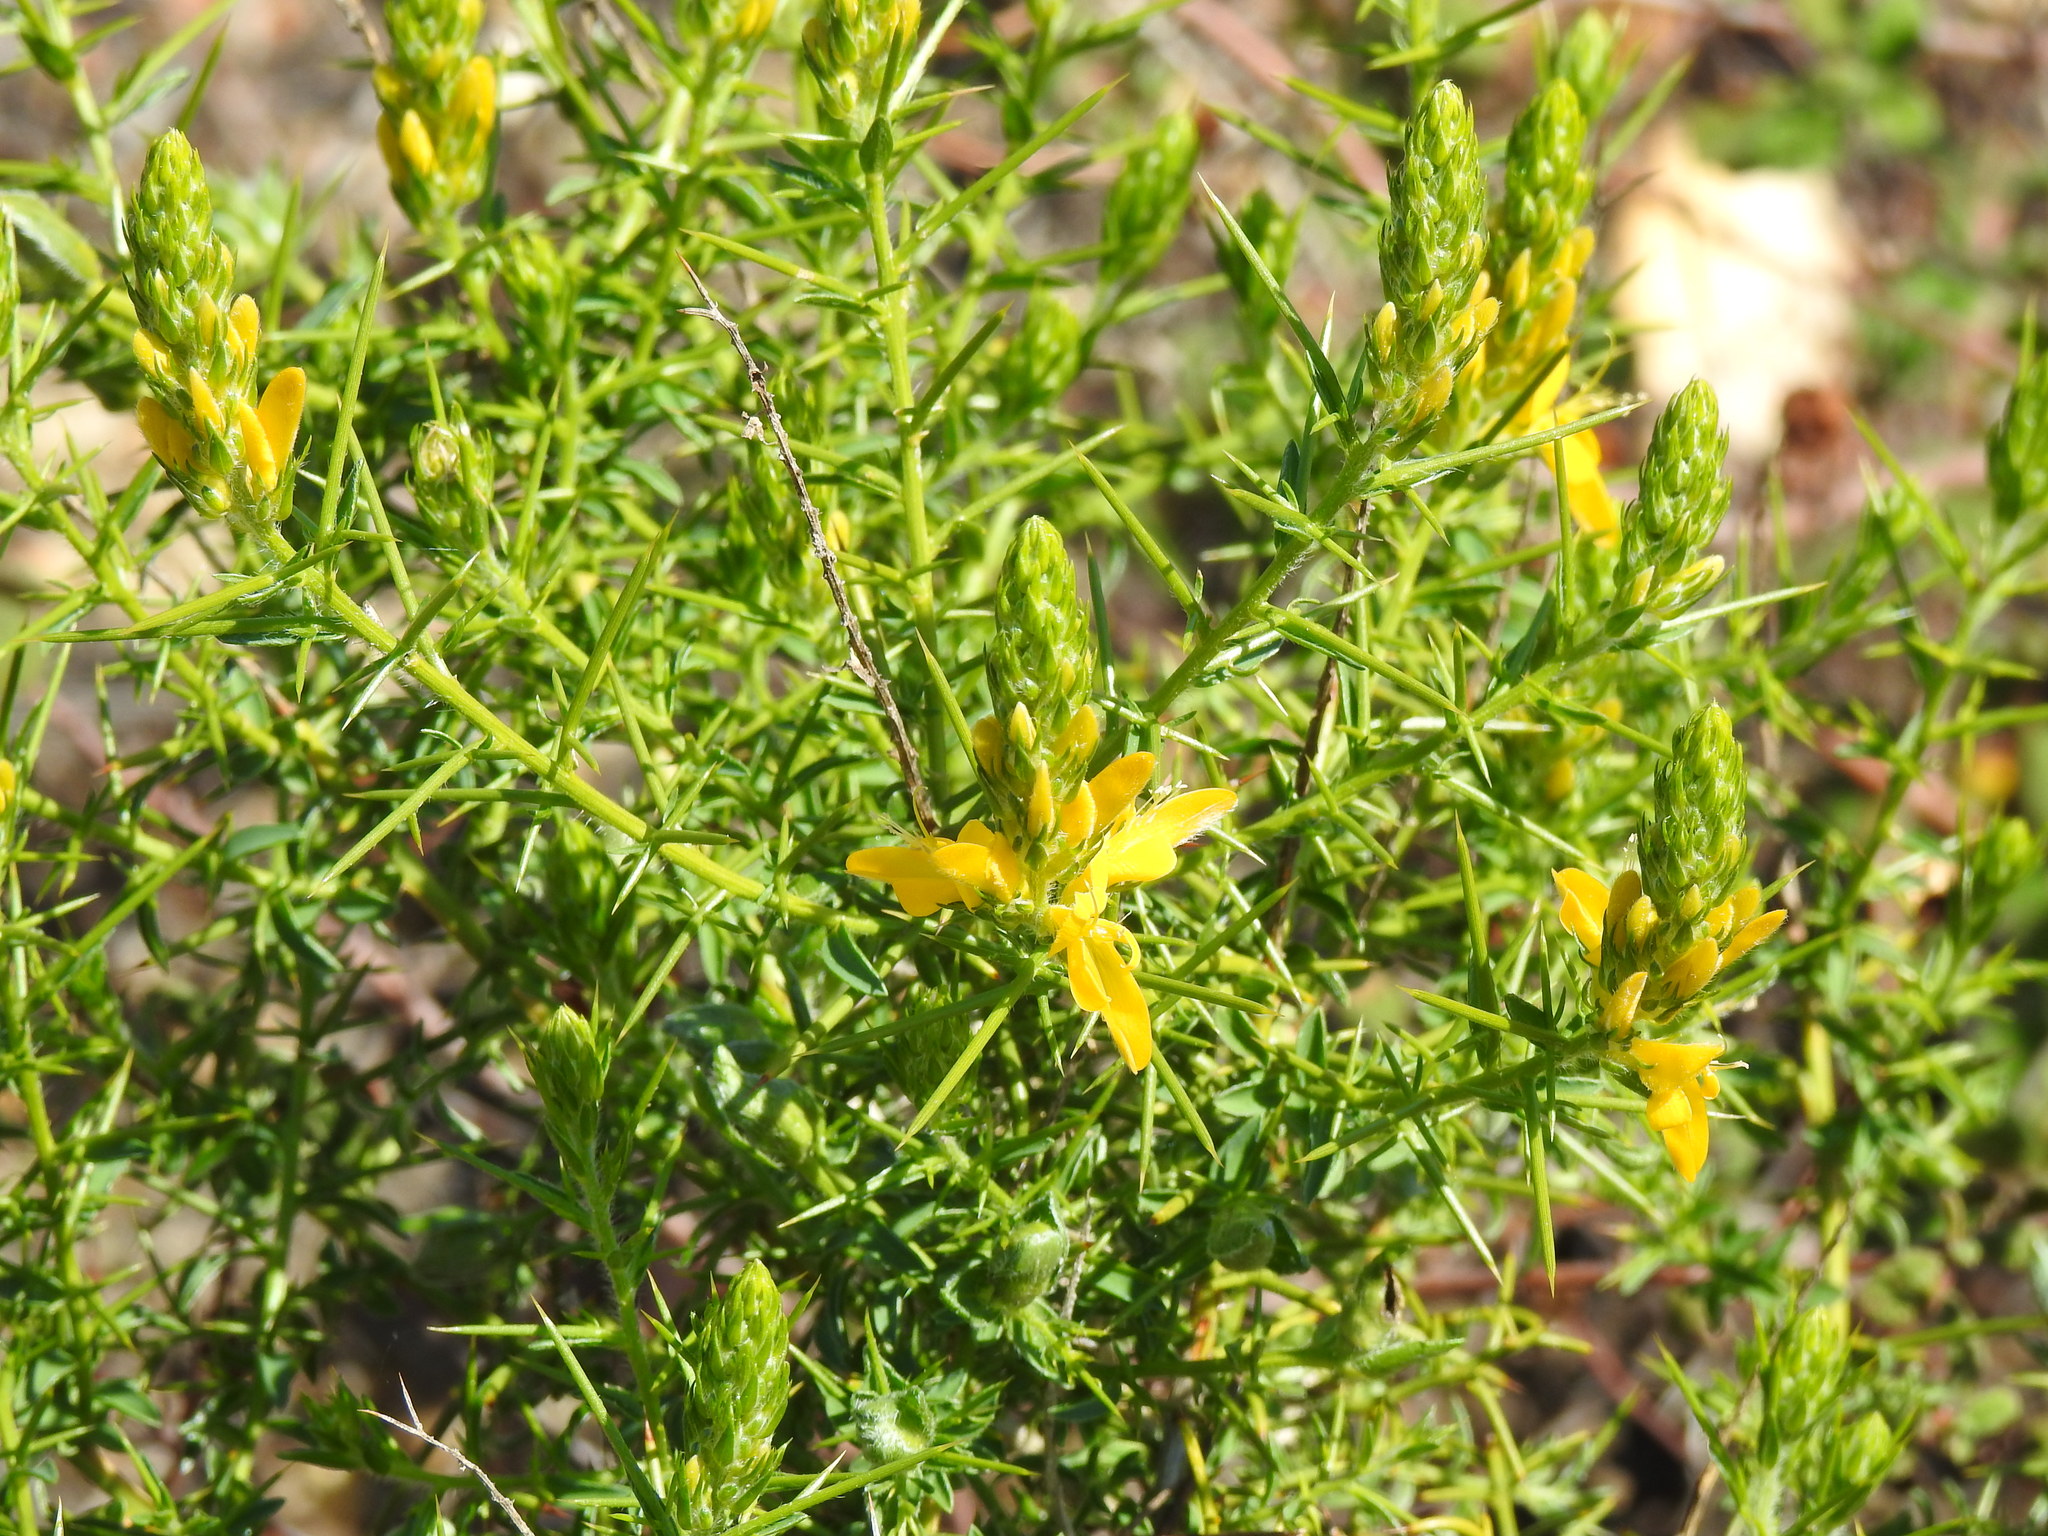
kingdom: Plantae
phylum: Tracheophyta
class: Magnoliopsida
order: Fabales
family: Fabaceae
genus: Genista
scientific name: Genista hirsuta
